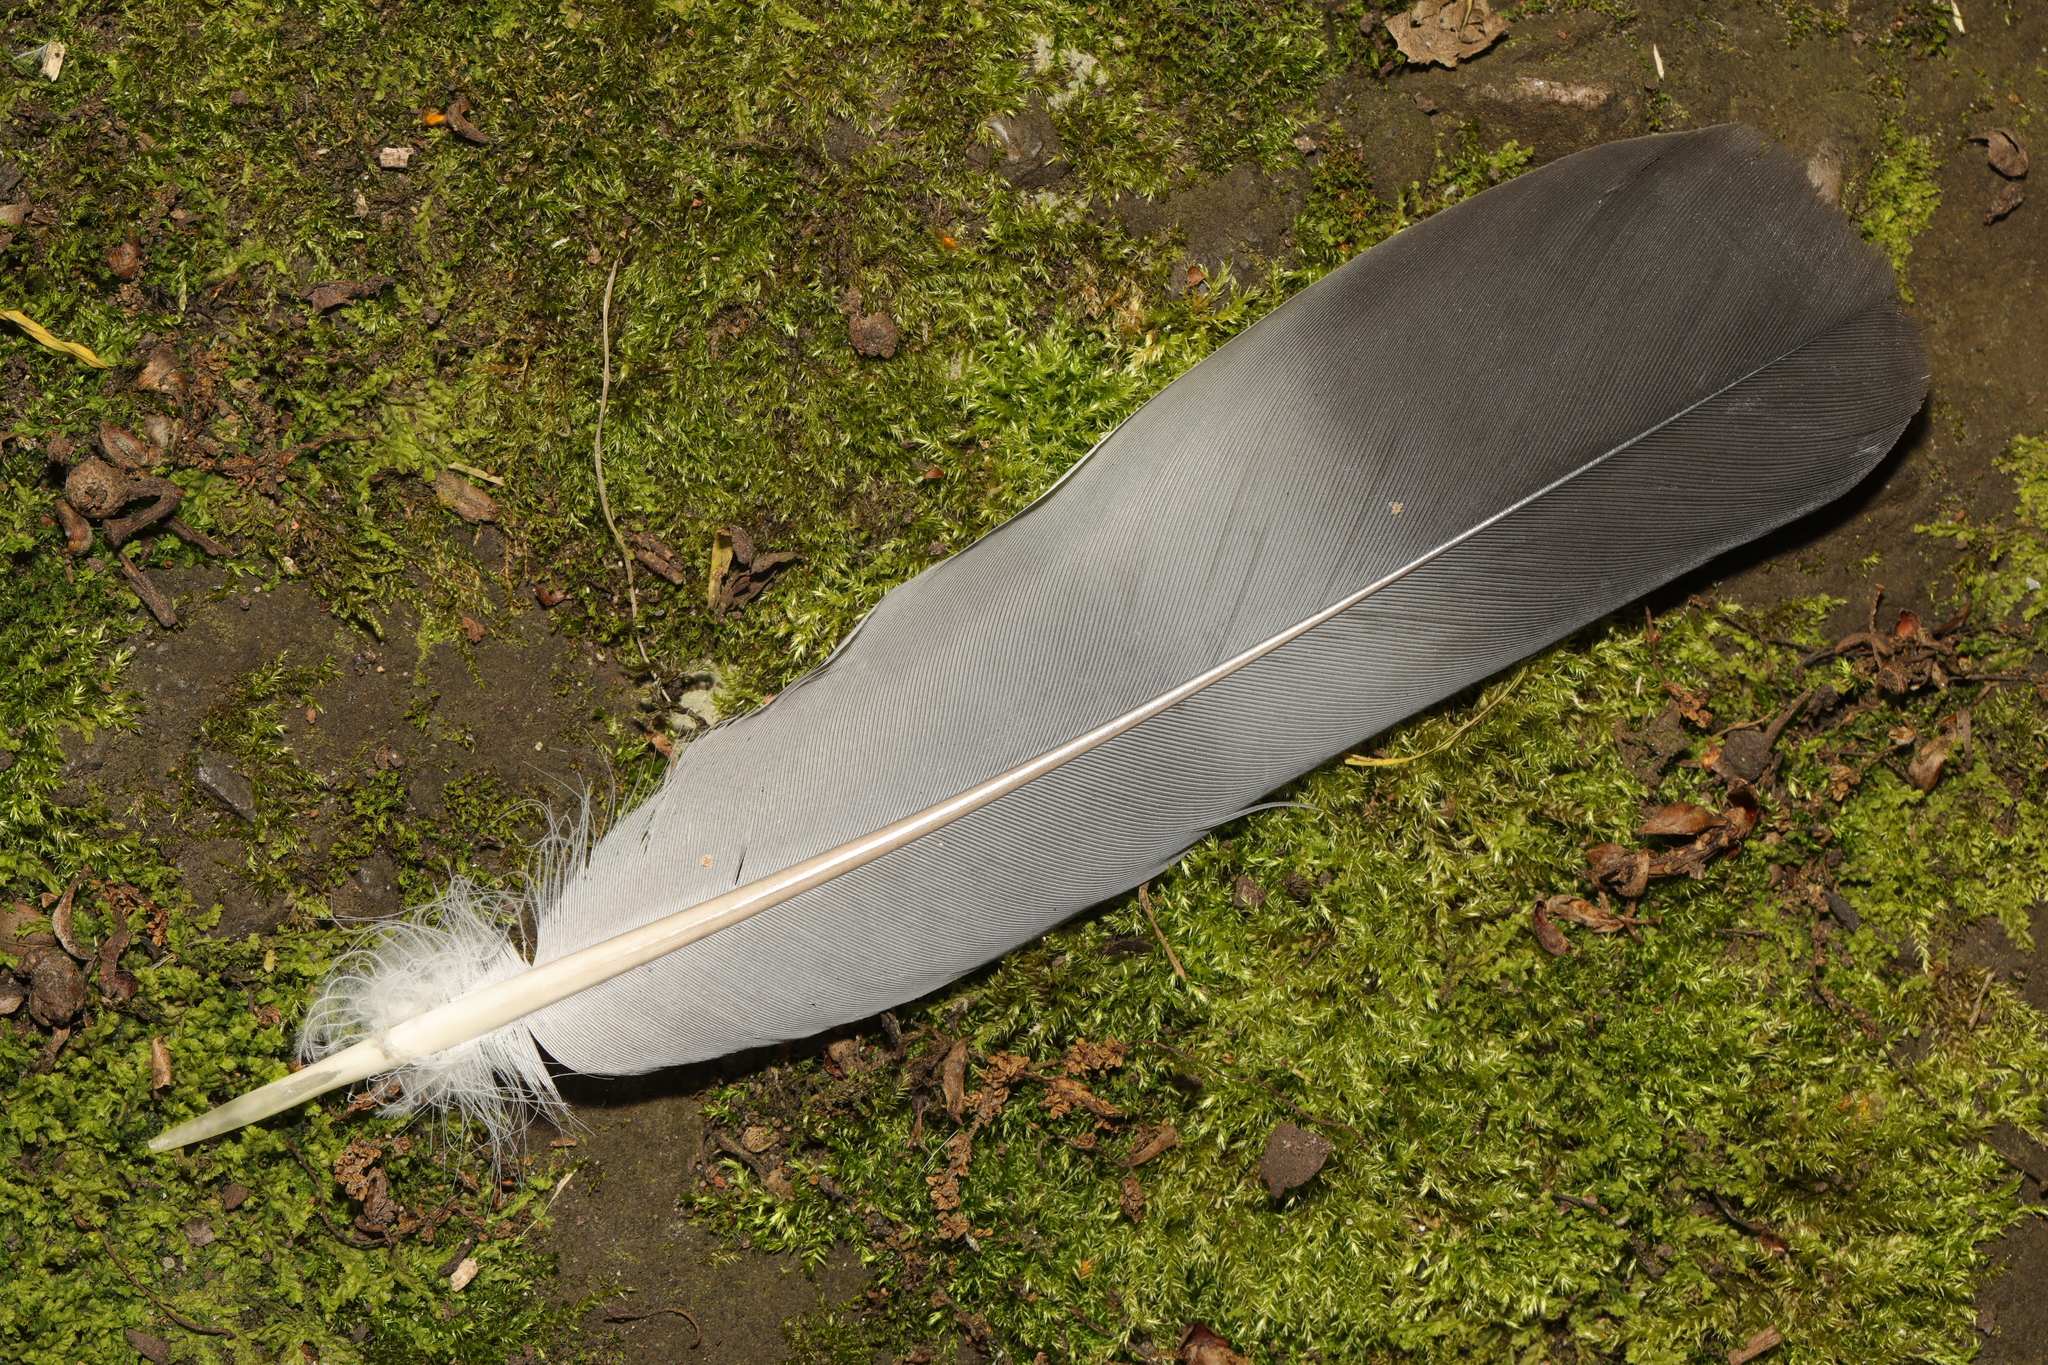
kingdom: Animalia
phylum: Chordata
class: Aves
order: Columbiformes
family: Columbidae
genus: Columba
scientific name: Columba palumbus
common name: Common wood pigeon
